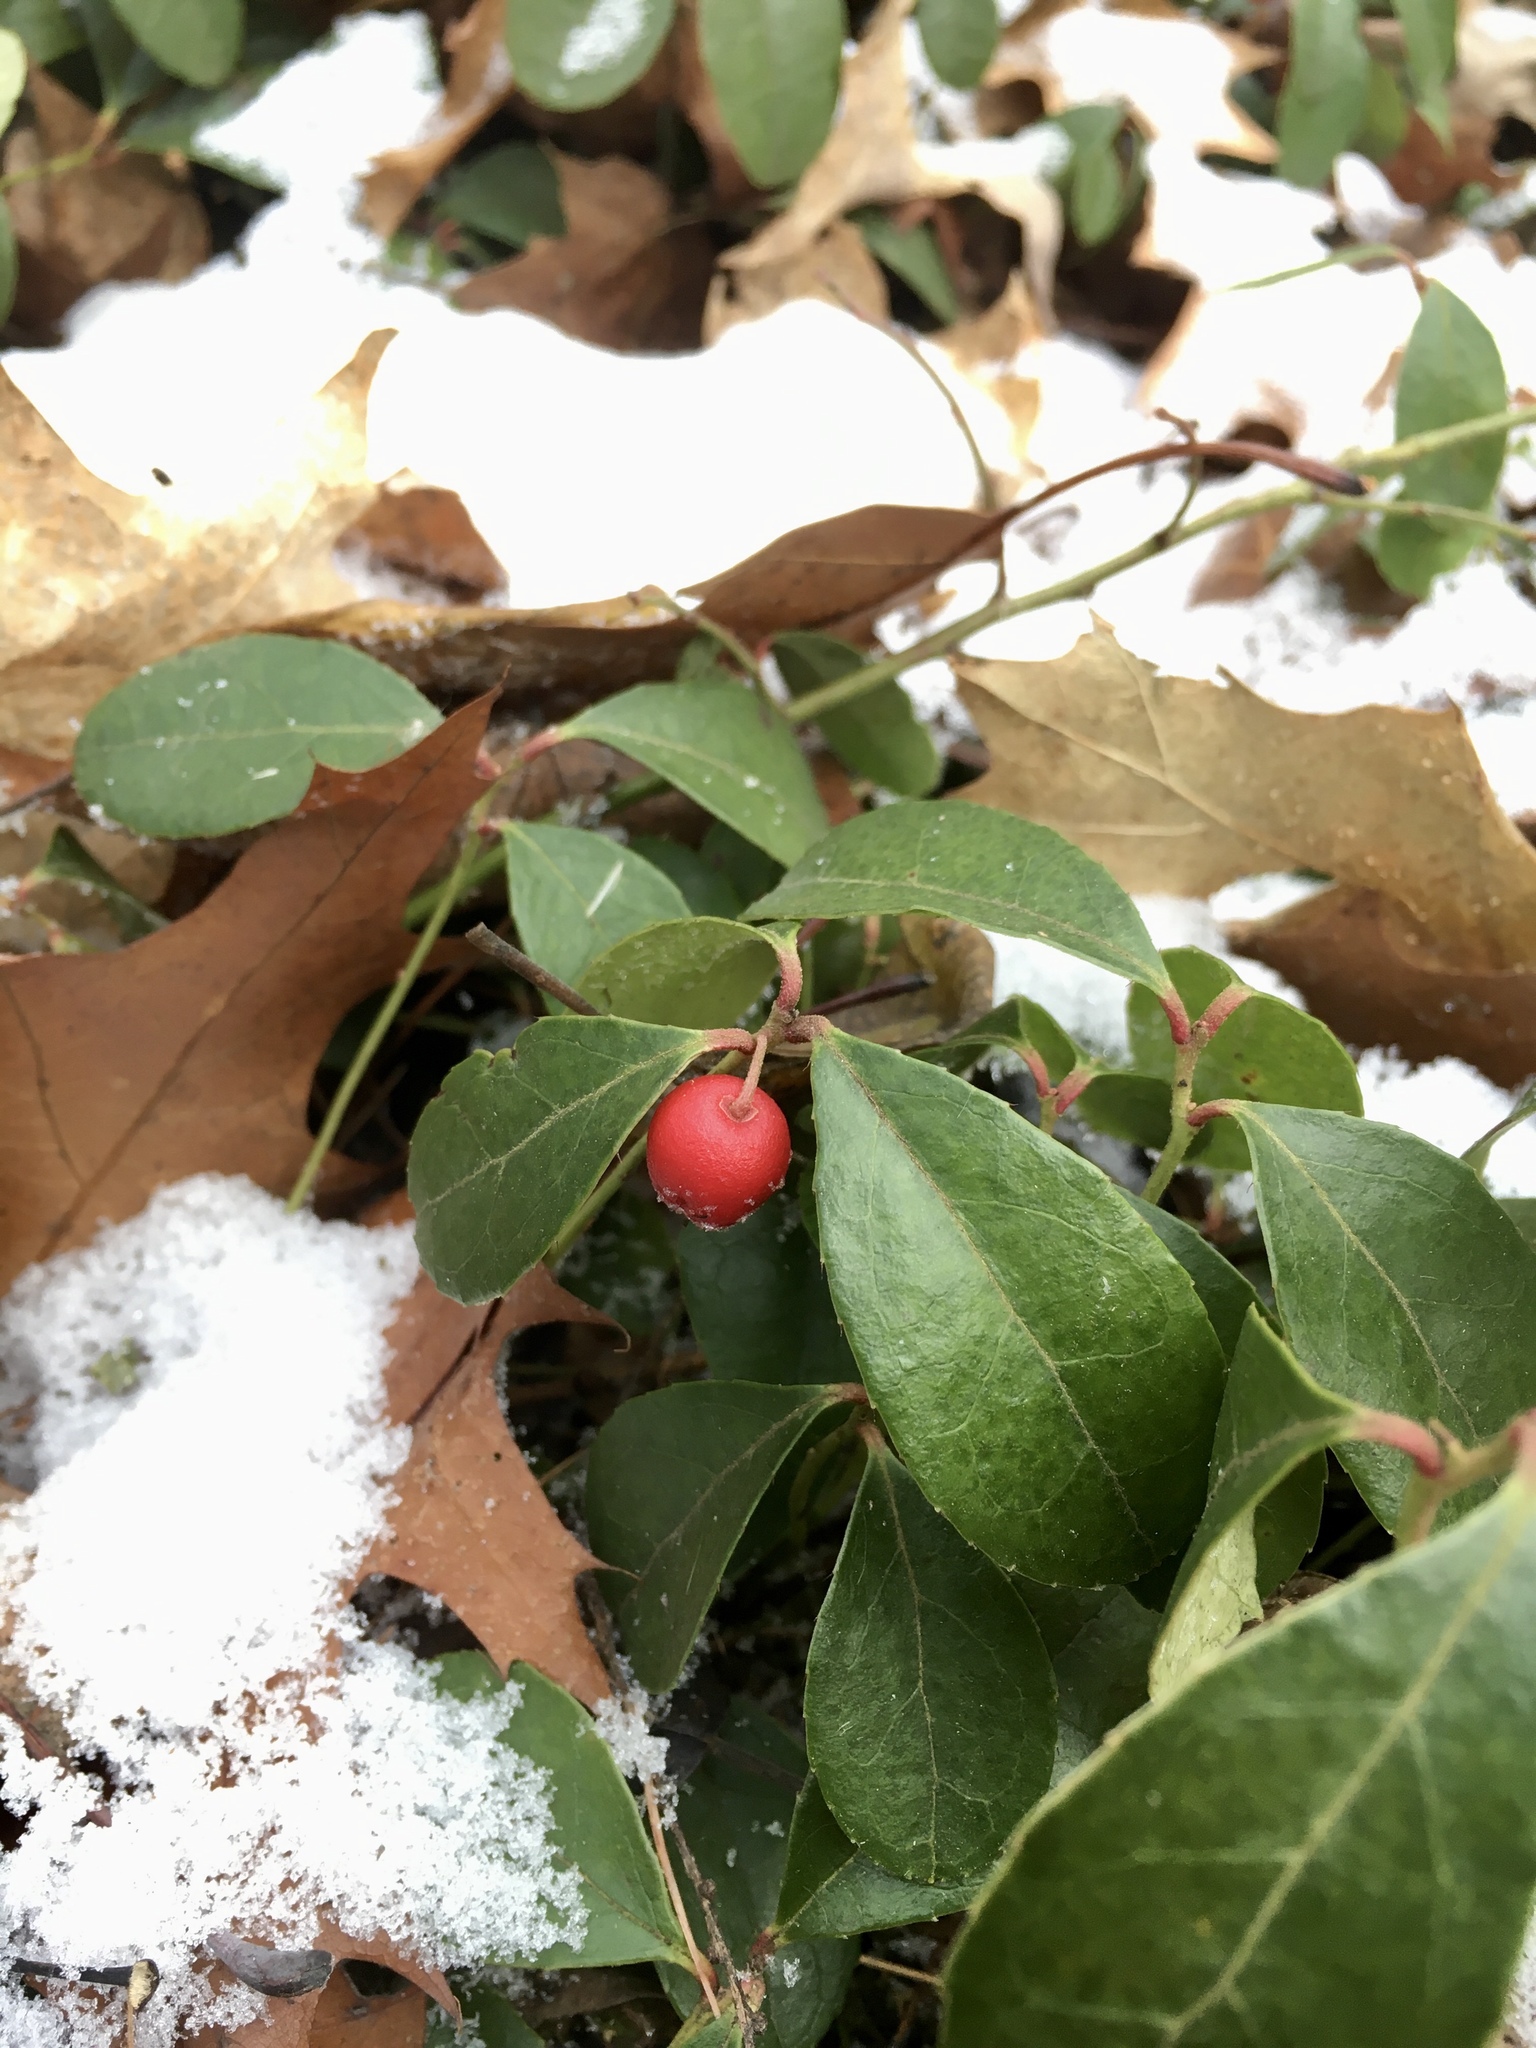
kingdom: Plantae
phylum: Tracheophyta
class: Magnoliopsida
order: Ericales
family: Ericaceae
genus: Gaultheria
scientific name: Gaultheria procumbens
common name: Checkerberry
